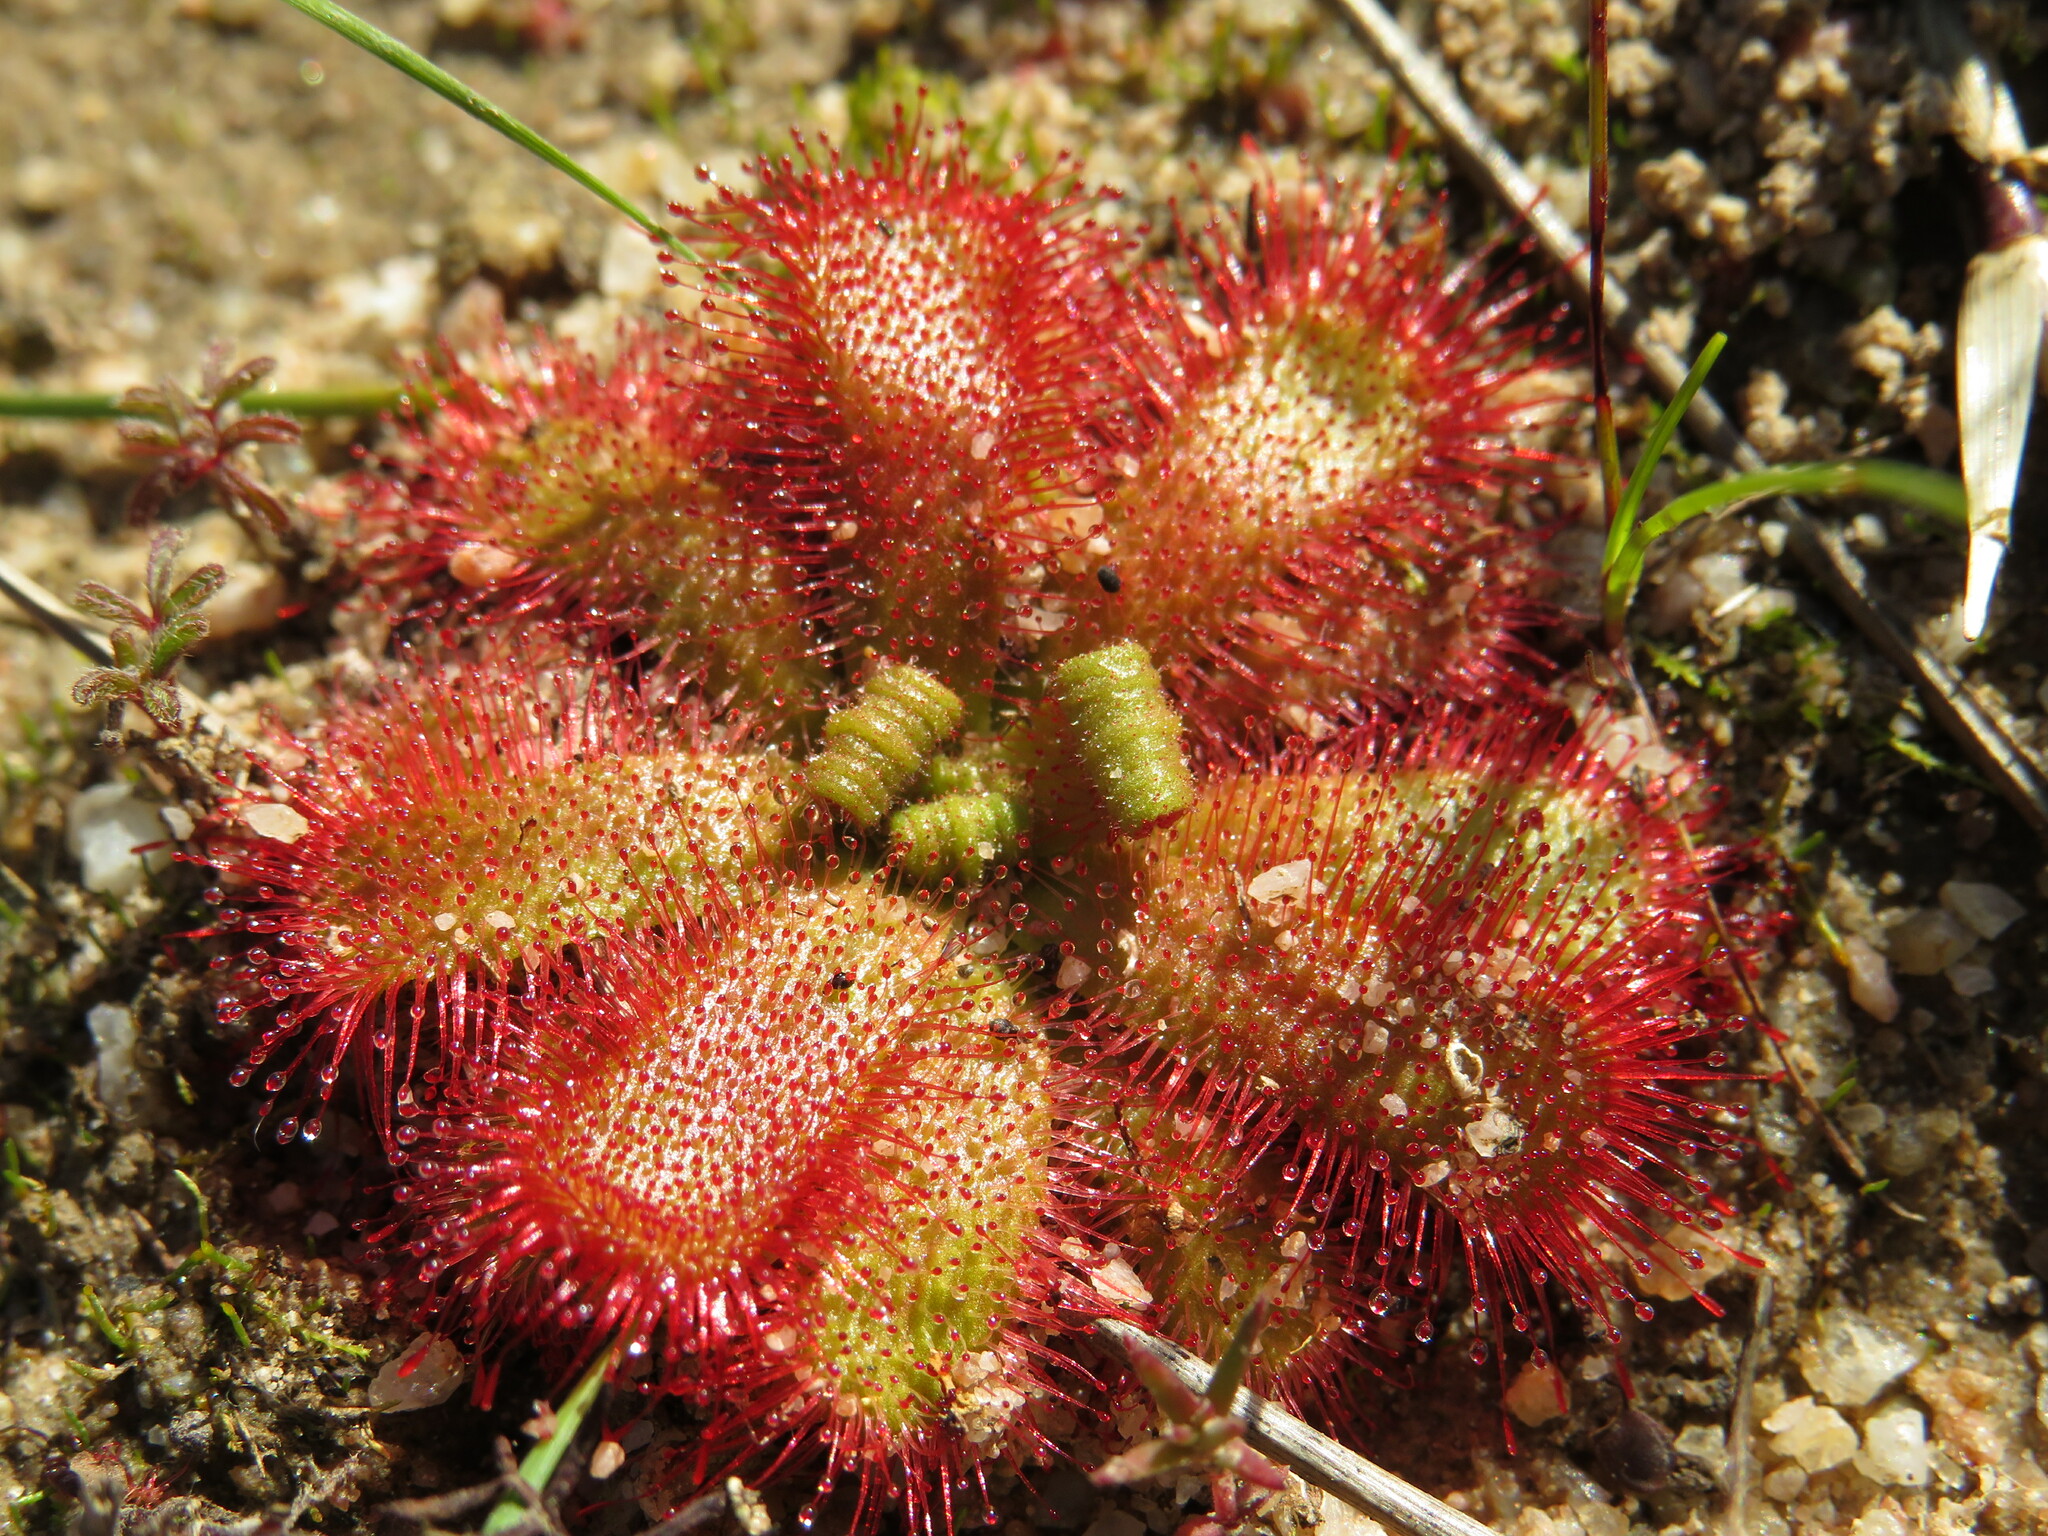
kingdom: Plantae
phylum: Tracheophyta
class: Magnoliopsida
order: Caryophyllales
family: Droseraceae
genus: Drosera
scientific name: Drosera trinervia
